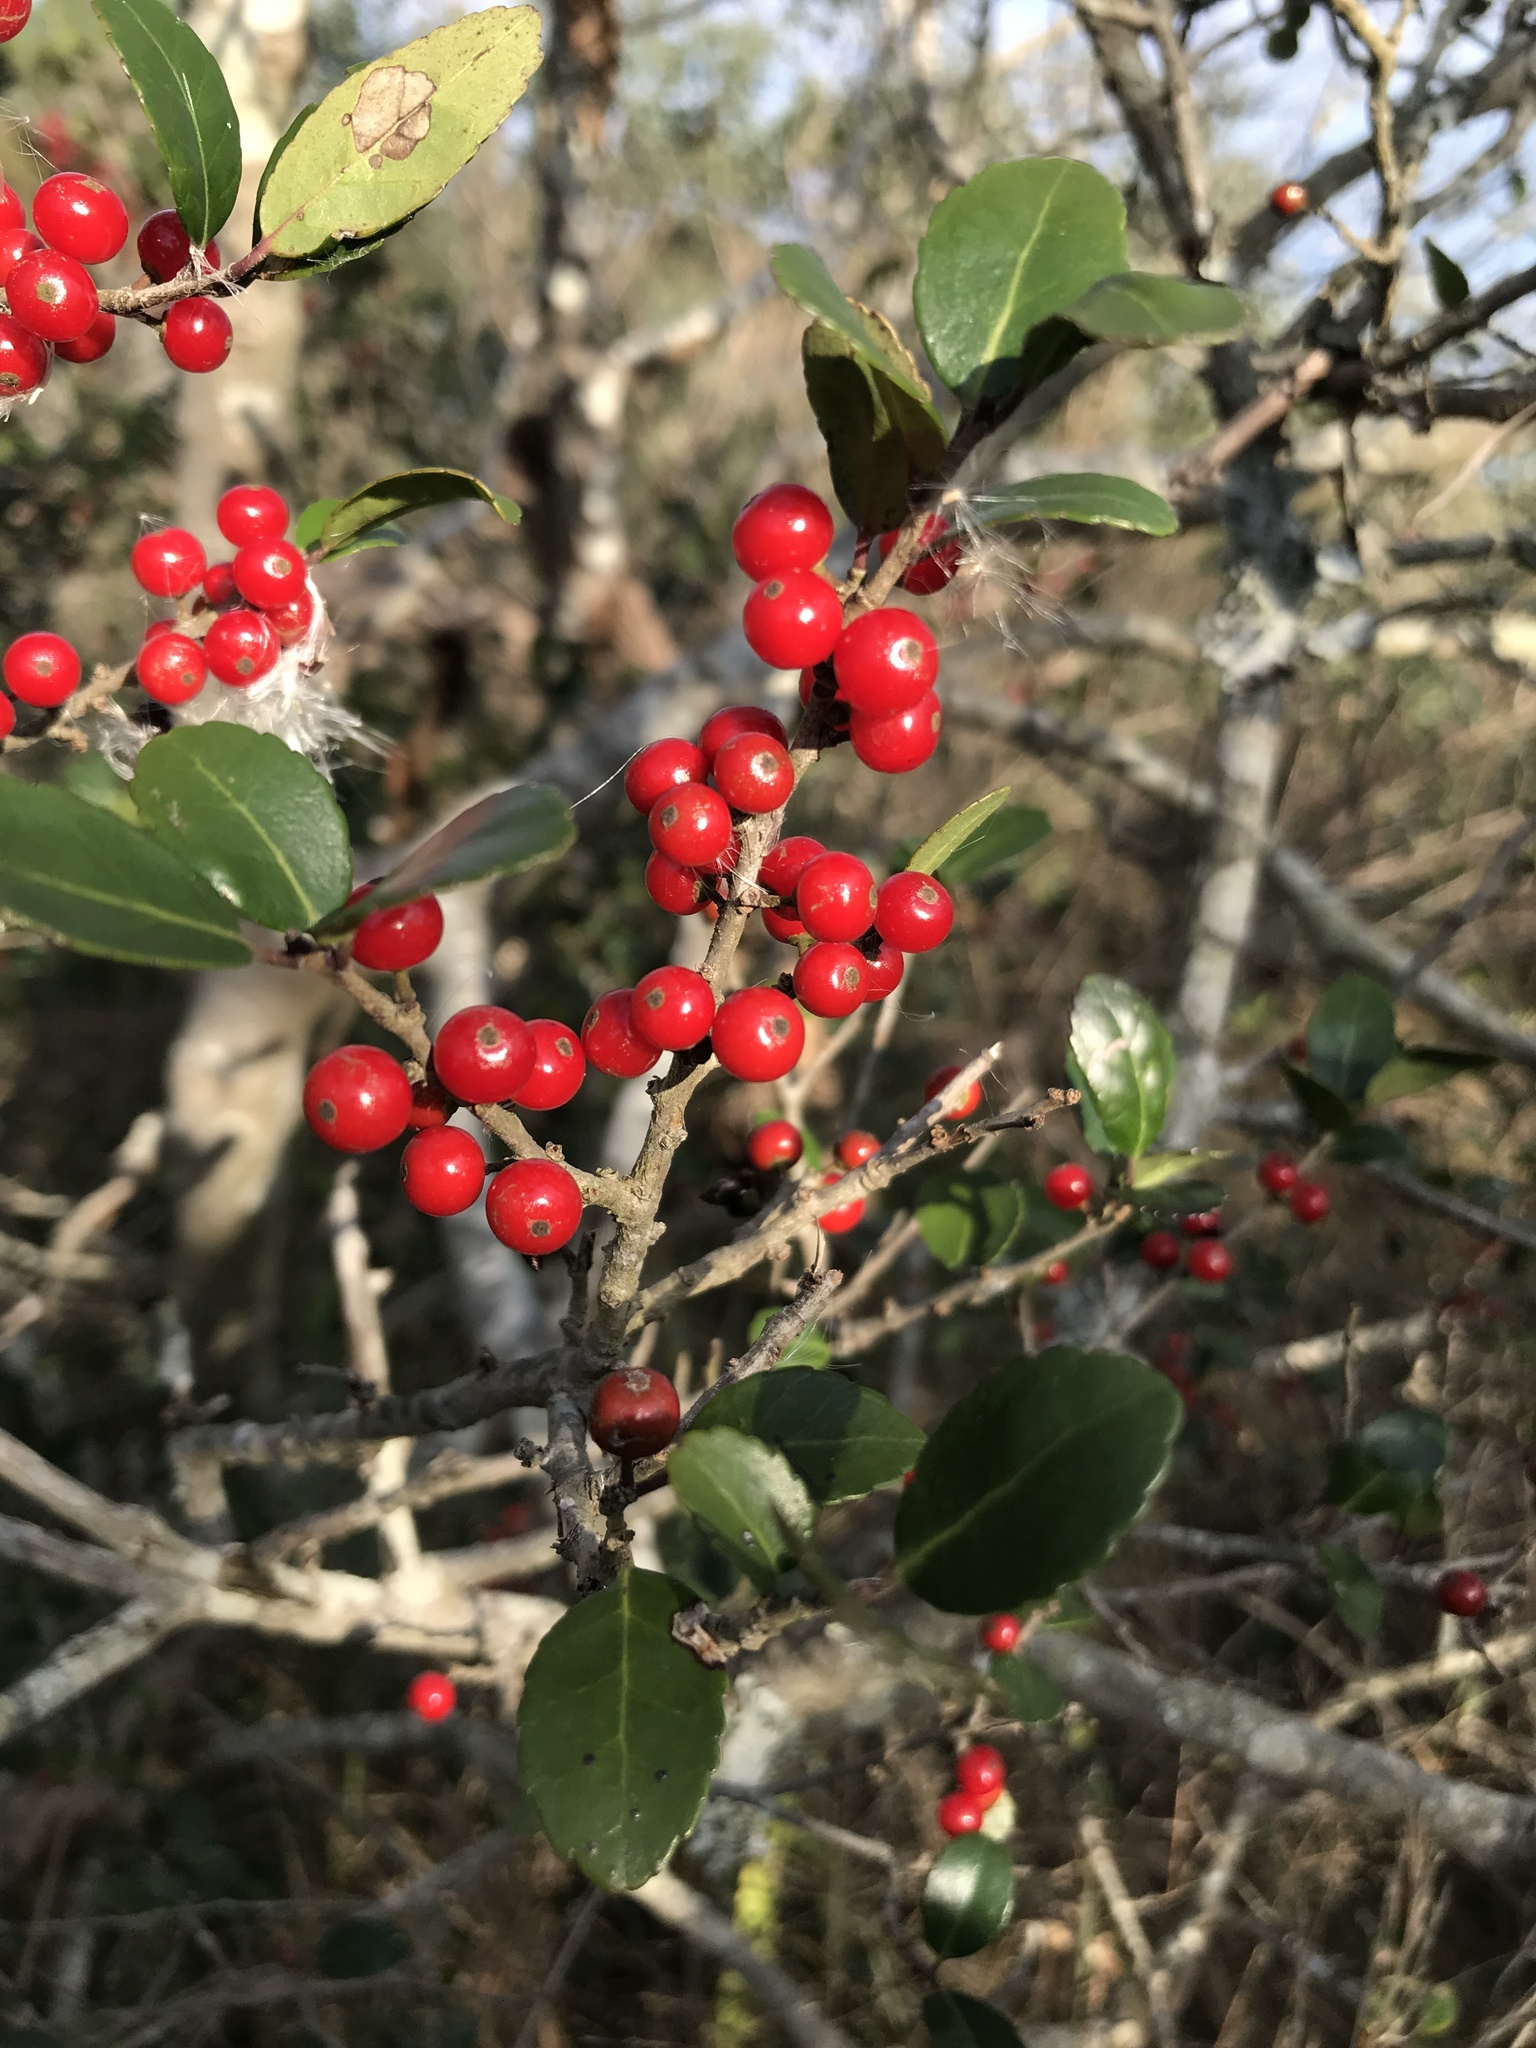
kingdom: Plantae
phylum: Tracheophyta
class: Magnoliopsida
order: Aquifoliales
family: Aquifoliaceae
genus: Ilex
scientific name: Ilex vomitoria
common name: Yaupon holly
